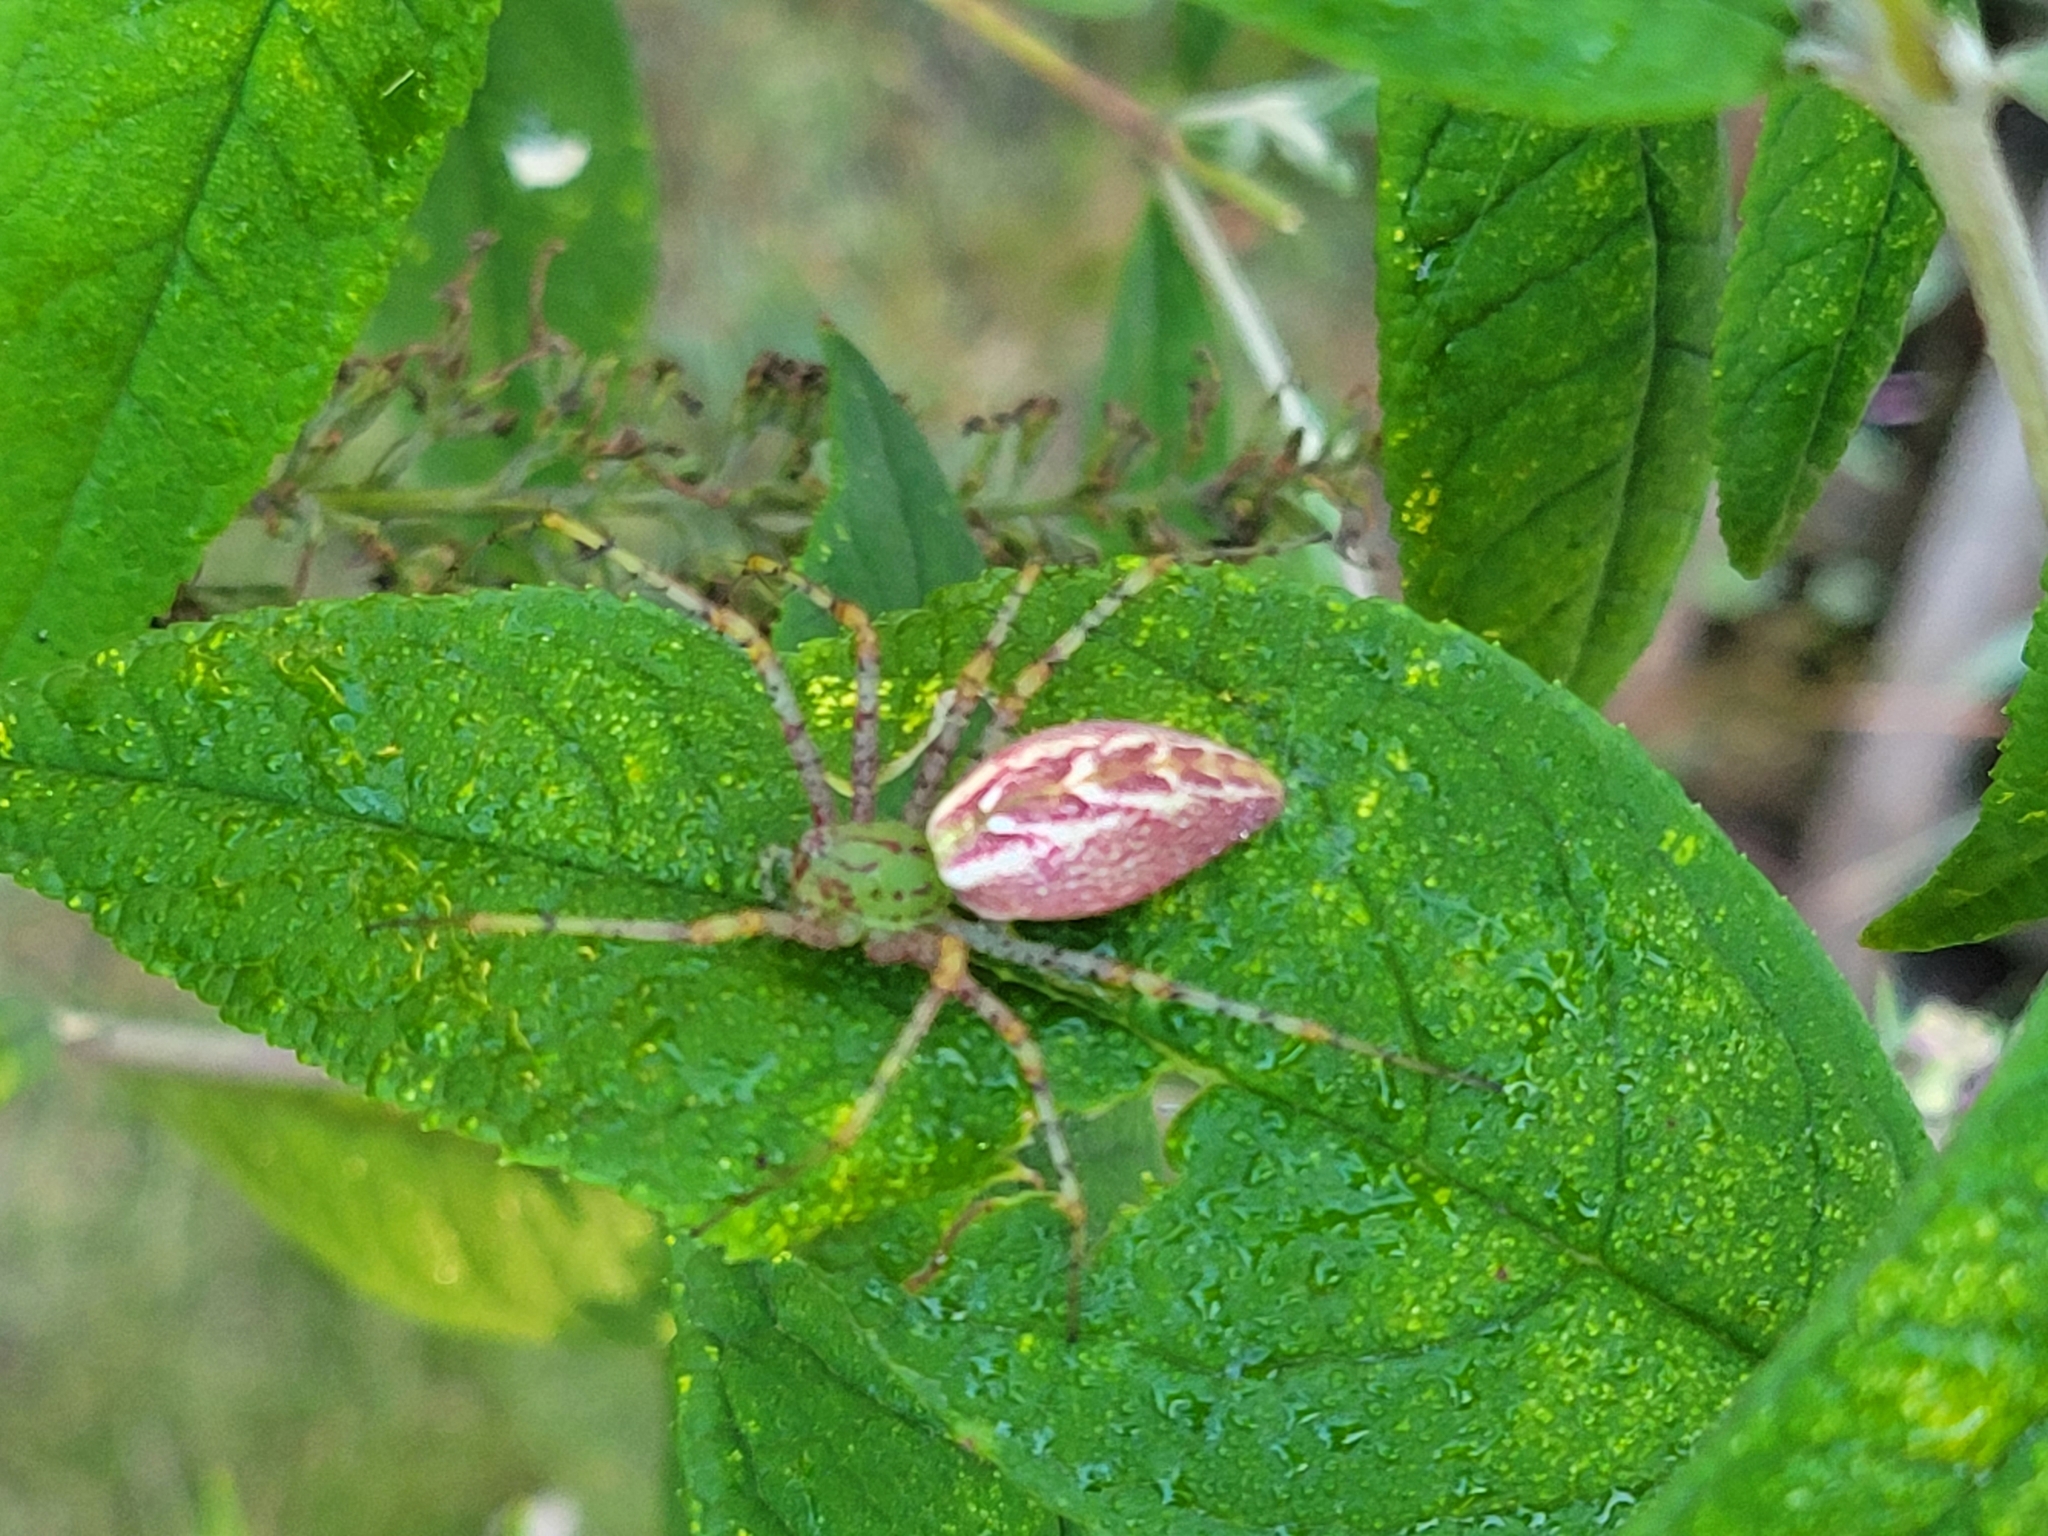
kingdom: Animalia
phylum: Arthropoda
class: Arachnida
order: Araneae
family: Oxyopidae
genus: Peucetia
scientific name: Peucetia viridans
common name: Lynx spiders
